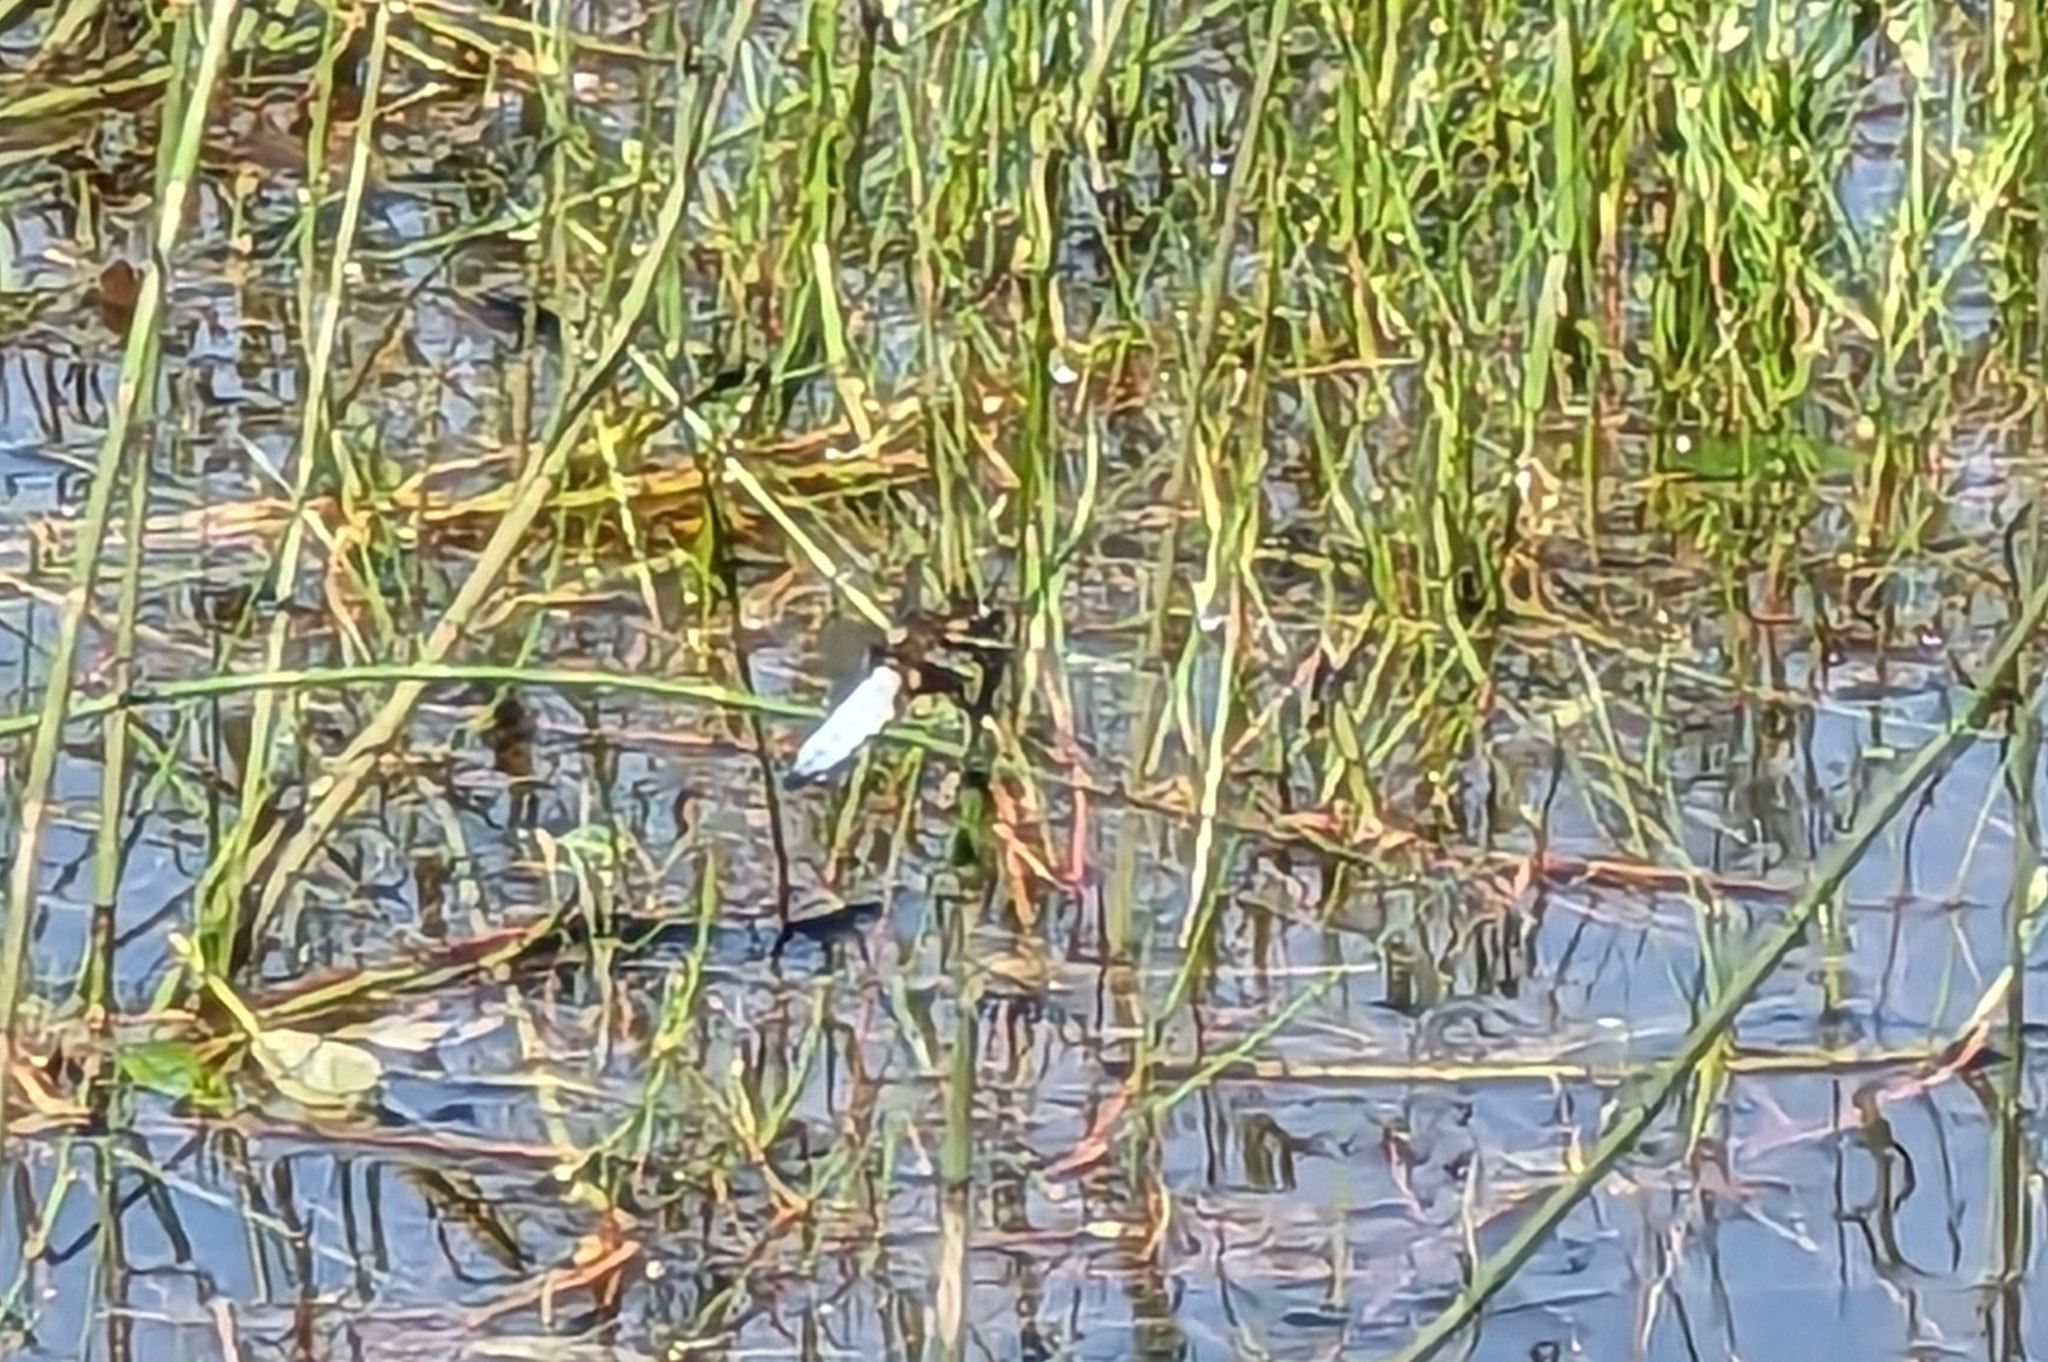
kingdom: Animalia
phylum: Arthropoda
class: Insecta
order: Odonata
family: Libellulidae
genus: Libellula
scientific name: Libellula depressa
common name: Broad-bodied chaser
